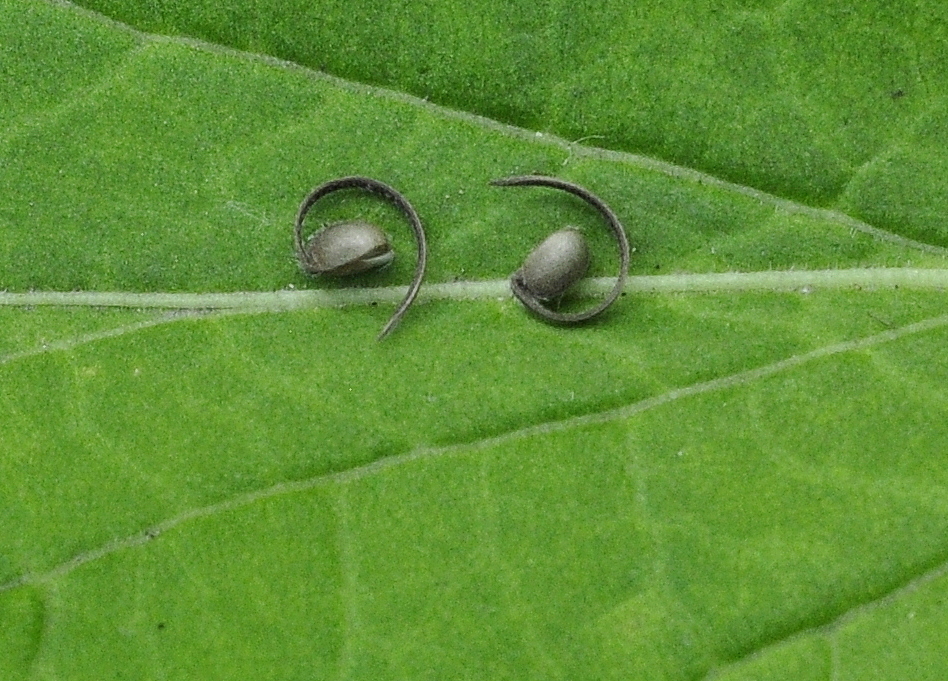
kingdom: Plantae
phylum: Tracheophyta
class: Magnoliopsida
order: Geraniales
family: Geraniaceae
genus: Geranium
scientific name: Geranium sibiricum
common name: Siberian crane's-bill
